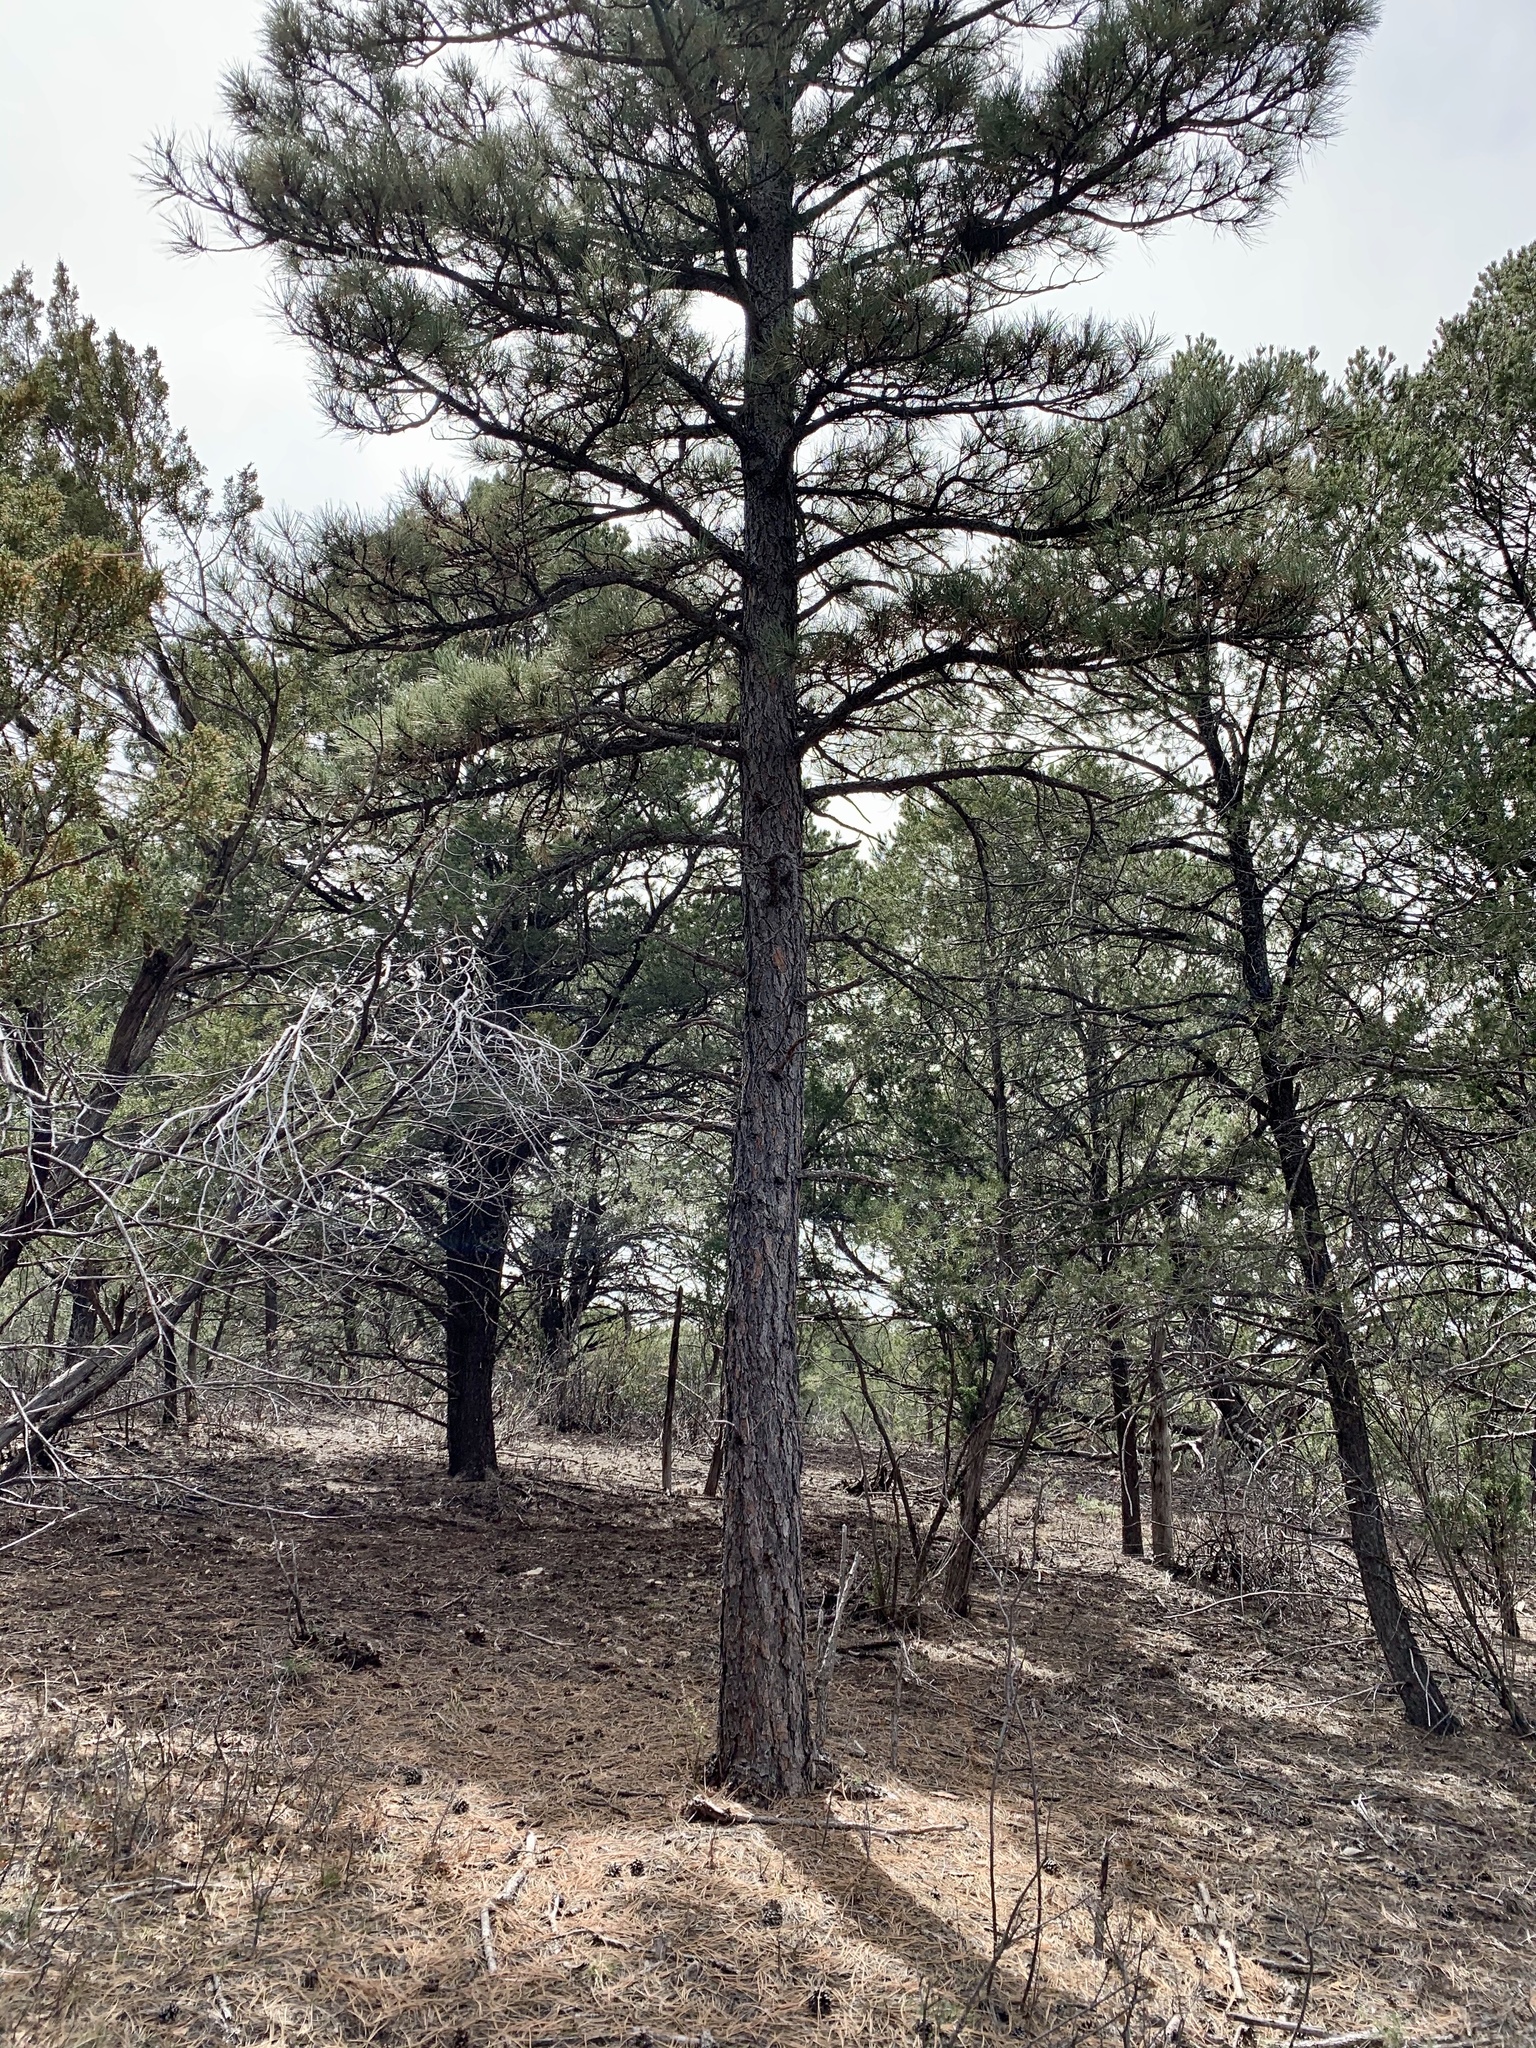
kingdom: Plantae
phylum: Tracheophyta
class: Pinopsida
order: Pinales
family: Pinaceae
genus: Pinus
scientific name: Pinus ponderosa
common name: Western yellow-pine
